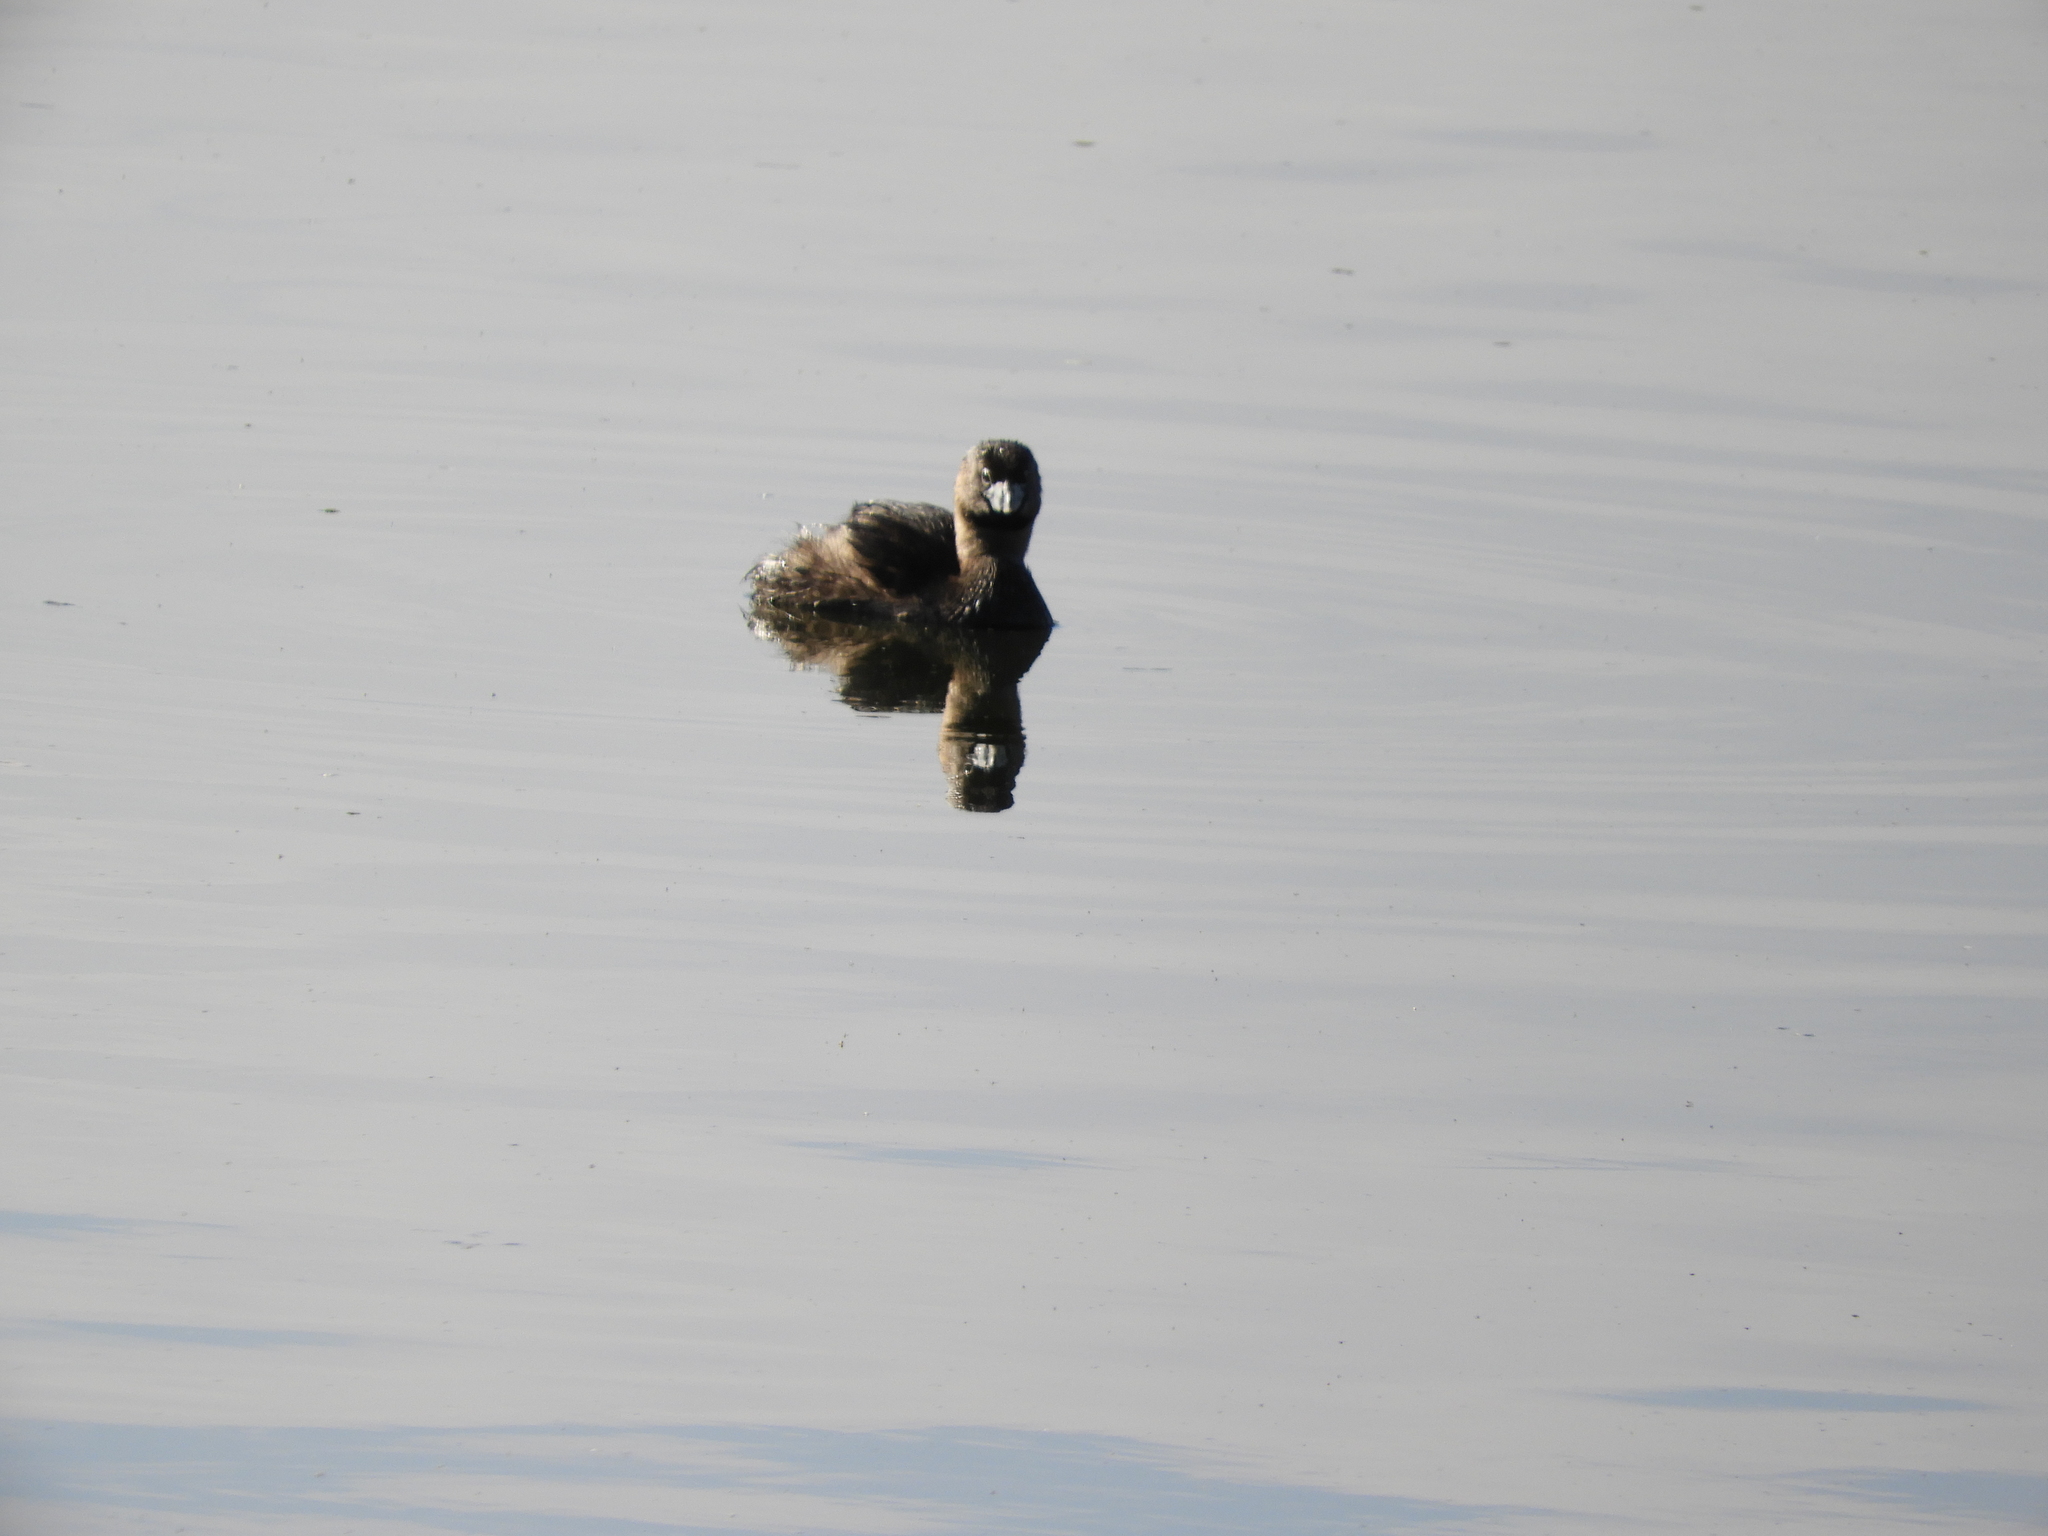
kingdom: Animalia
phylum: Chordata
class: Aves
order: Podicipediformes
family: Podicipedidae
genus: Podilymbus
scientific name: Podilymbus podiceps
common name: Pied-billed grebe
